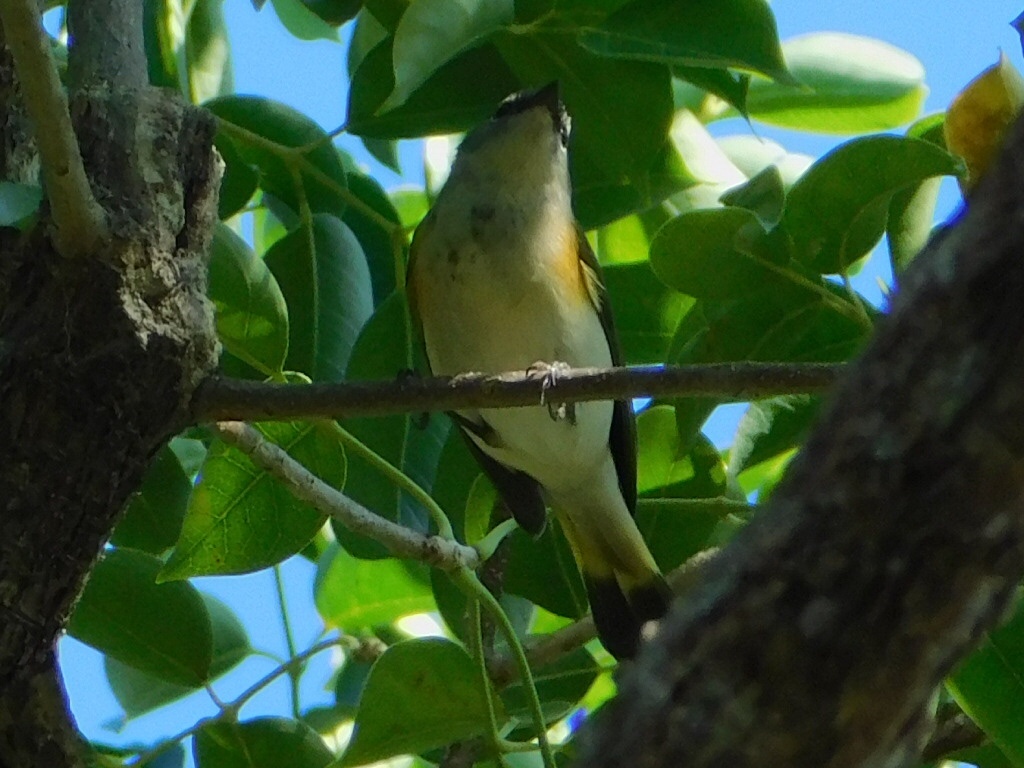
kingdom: Animalia
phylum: Chordata
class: Aves
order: Passeriformes
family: Parulidae
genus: Setophaga
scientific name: Setophaga ruticilla
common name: American redstart
